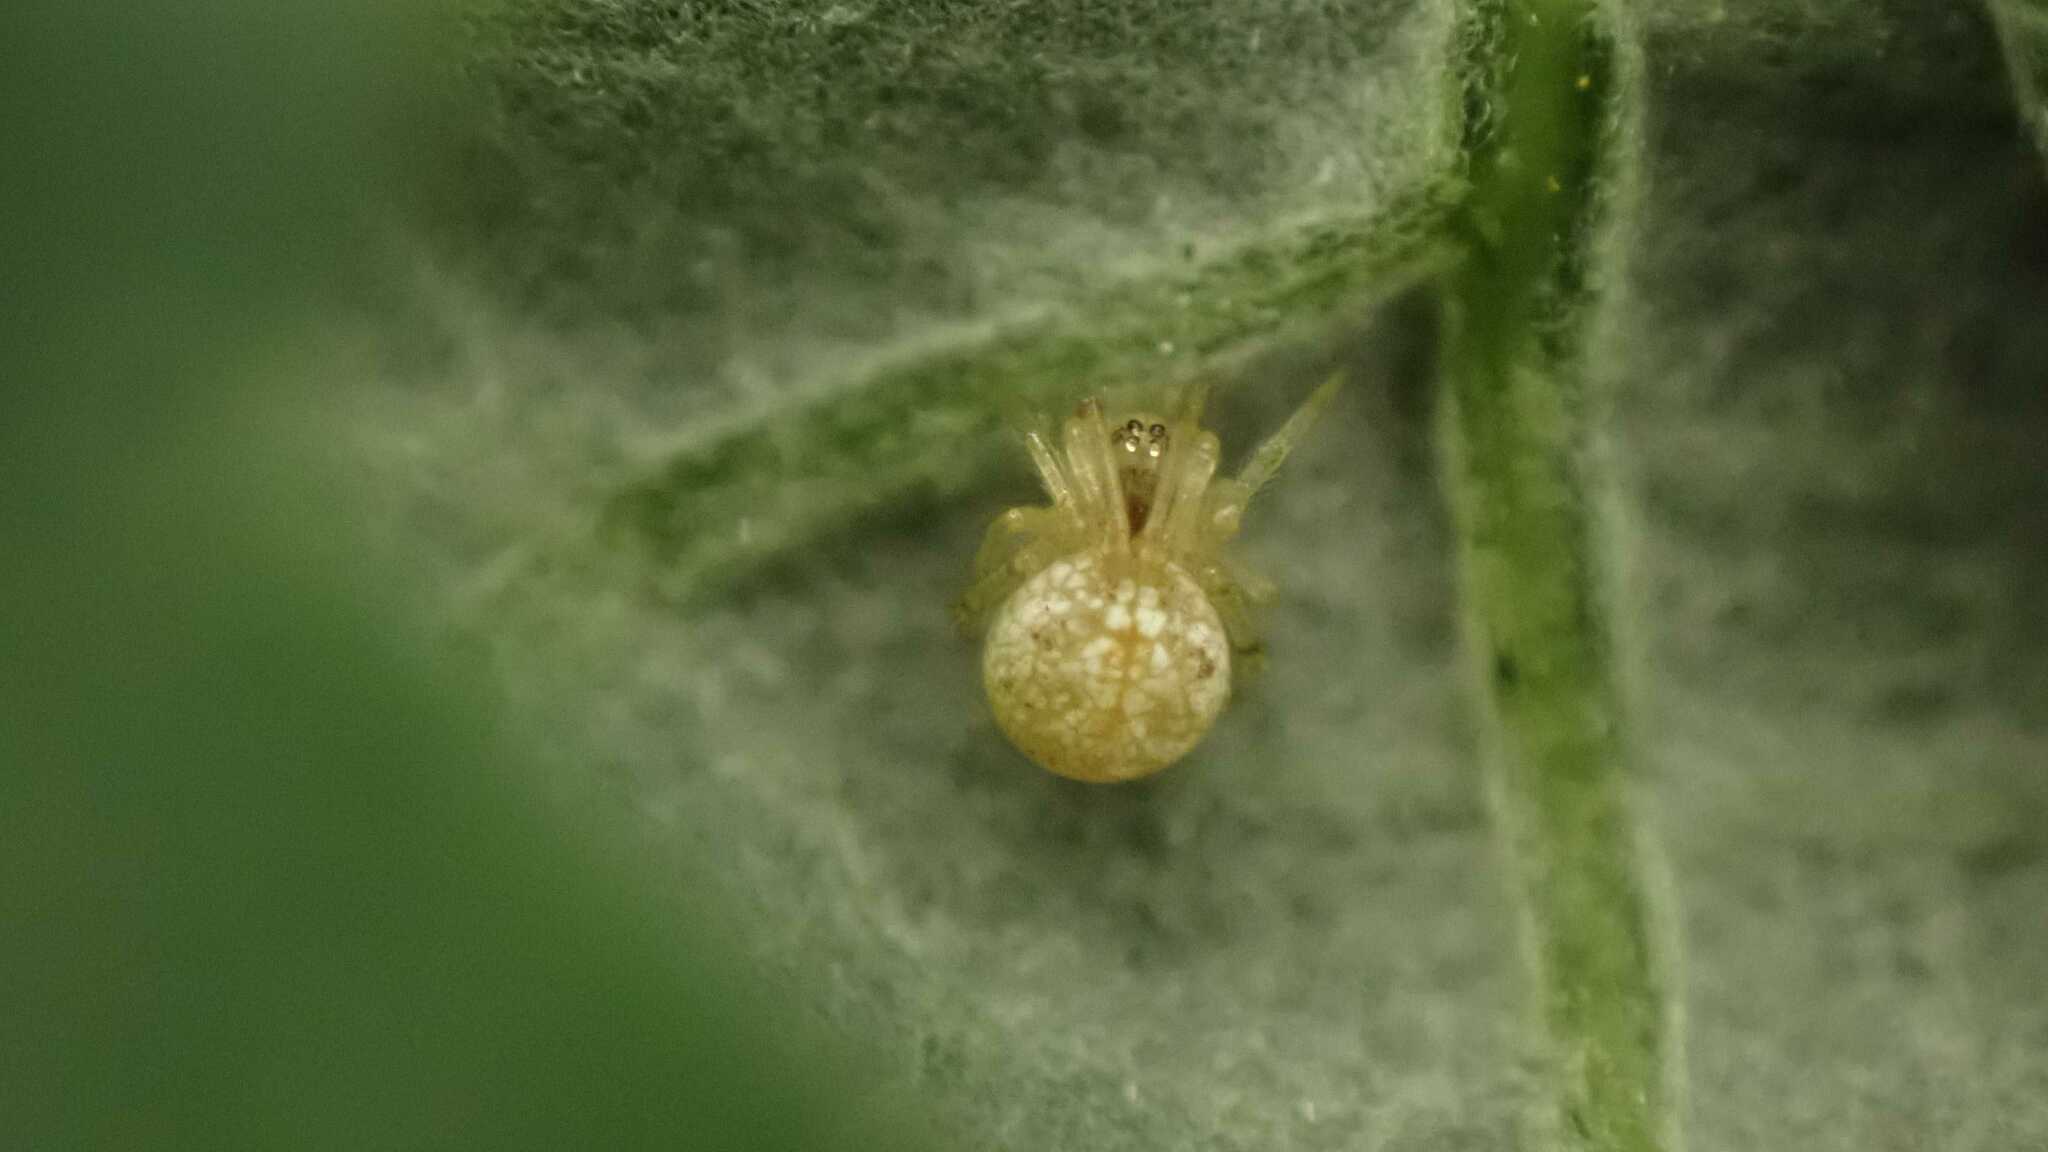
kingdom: Animalia
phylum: Arthropoda
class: Arachnida
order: Araneae
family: Theridiidae
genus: Paidiscura
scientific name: Paidiscura pallens
